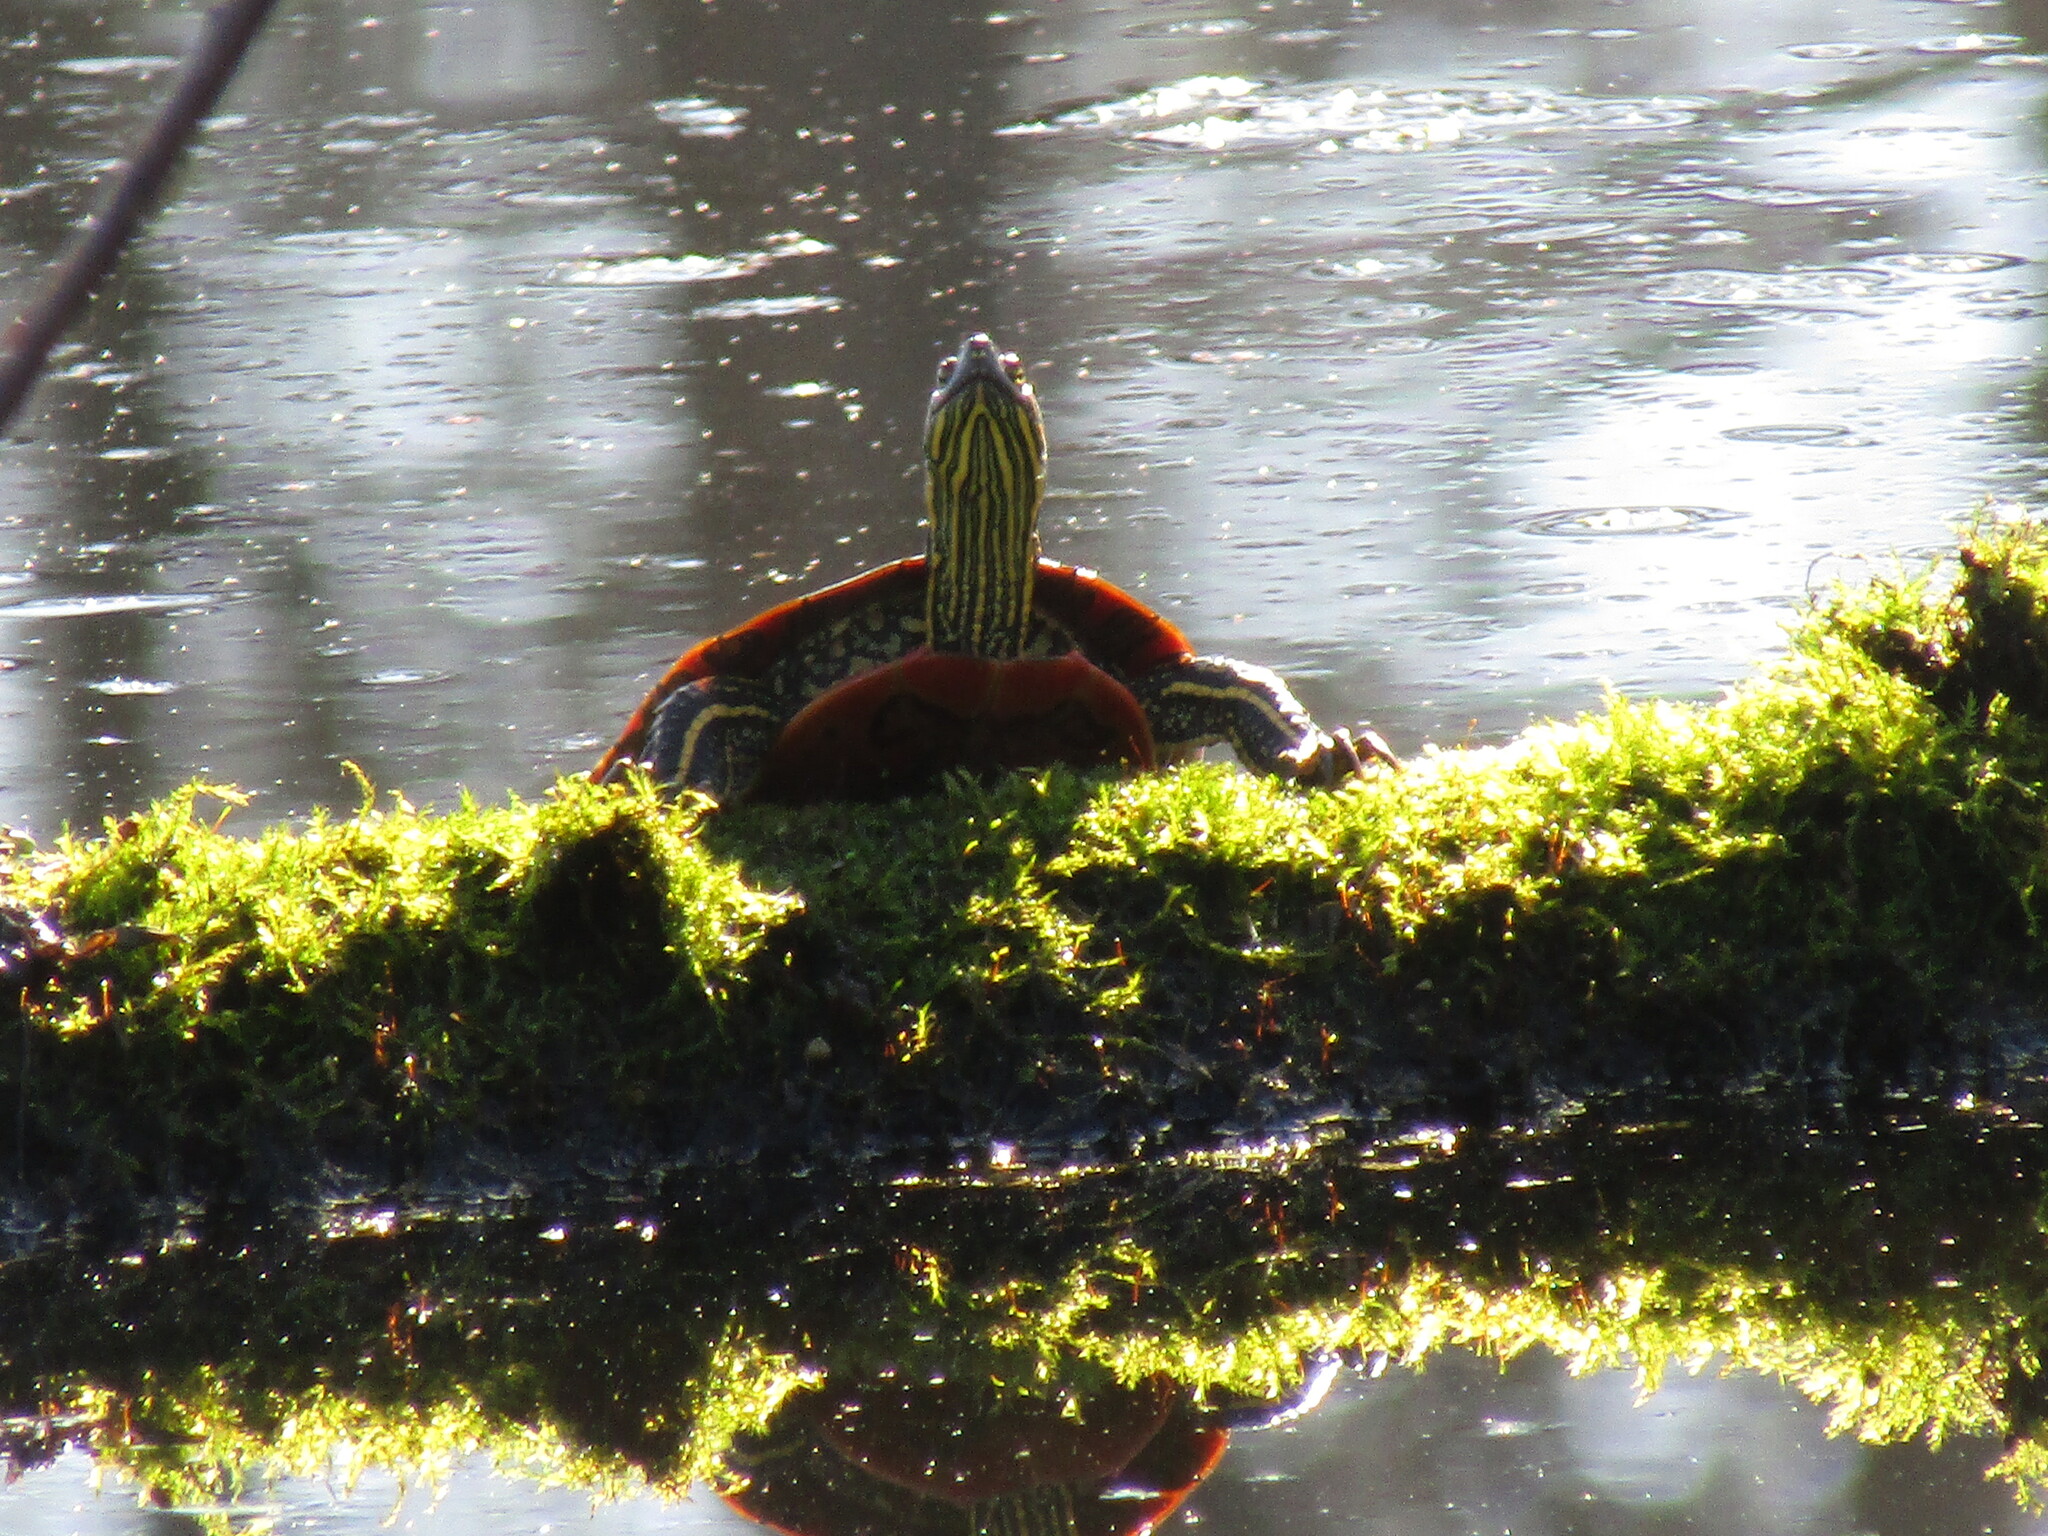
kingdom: Animalia
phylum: Chordata
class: Testudines
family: Emydidae
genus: Chrysemys
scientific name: Chrysemys picta
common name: Painted turtle
